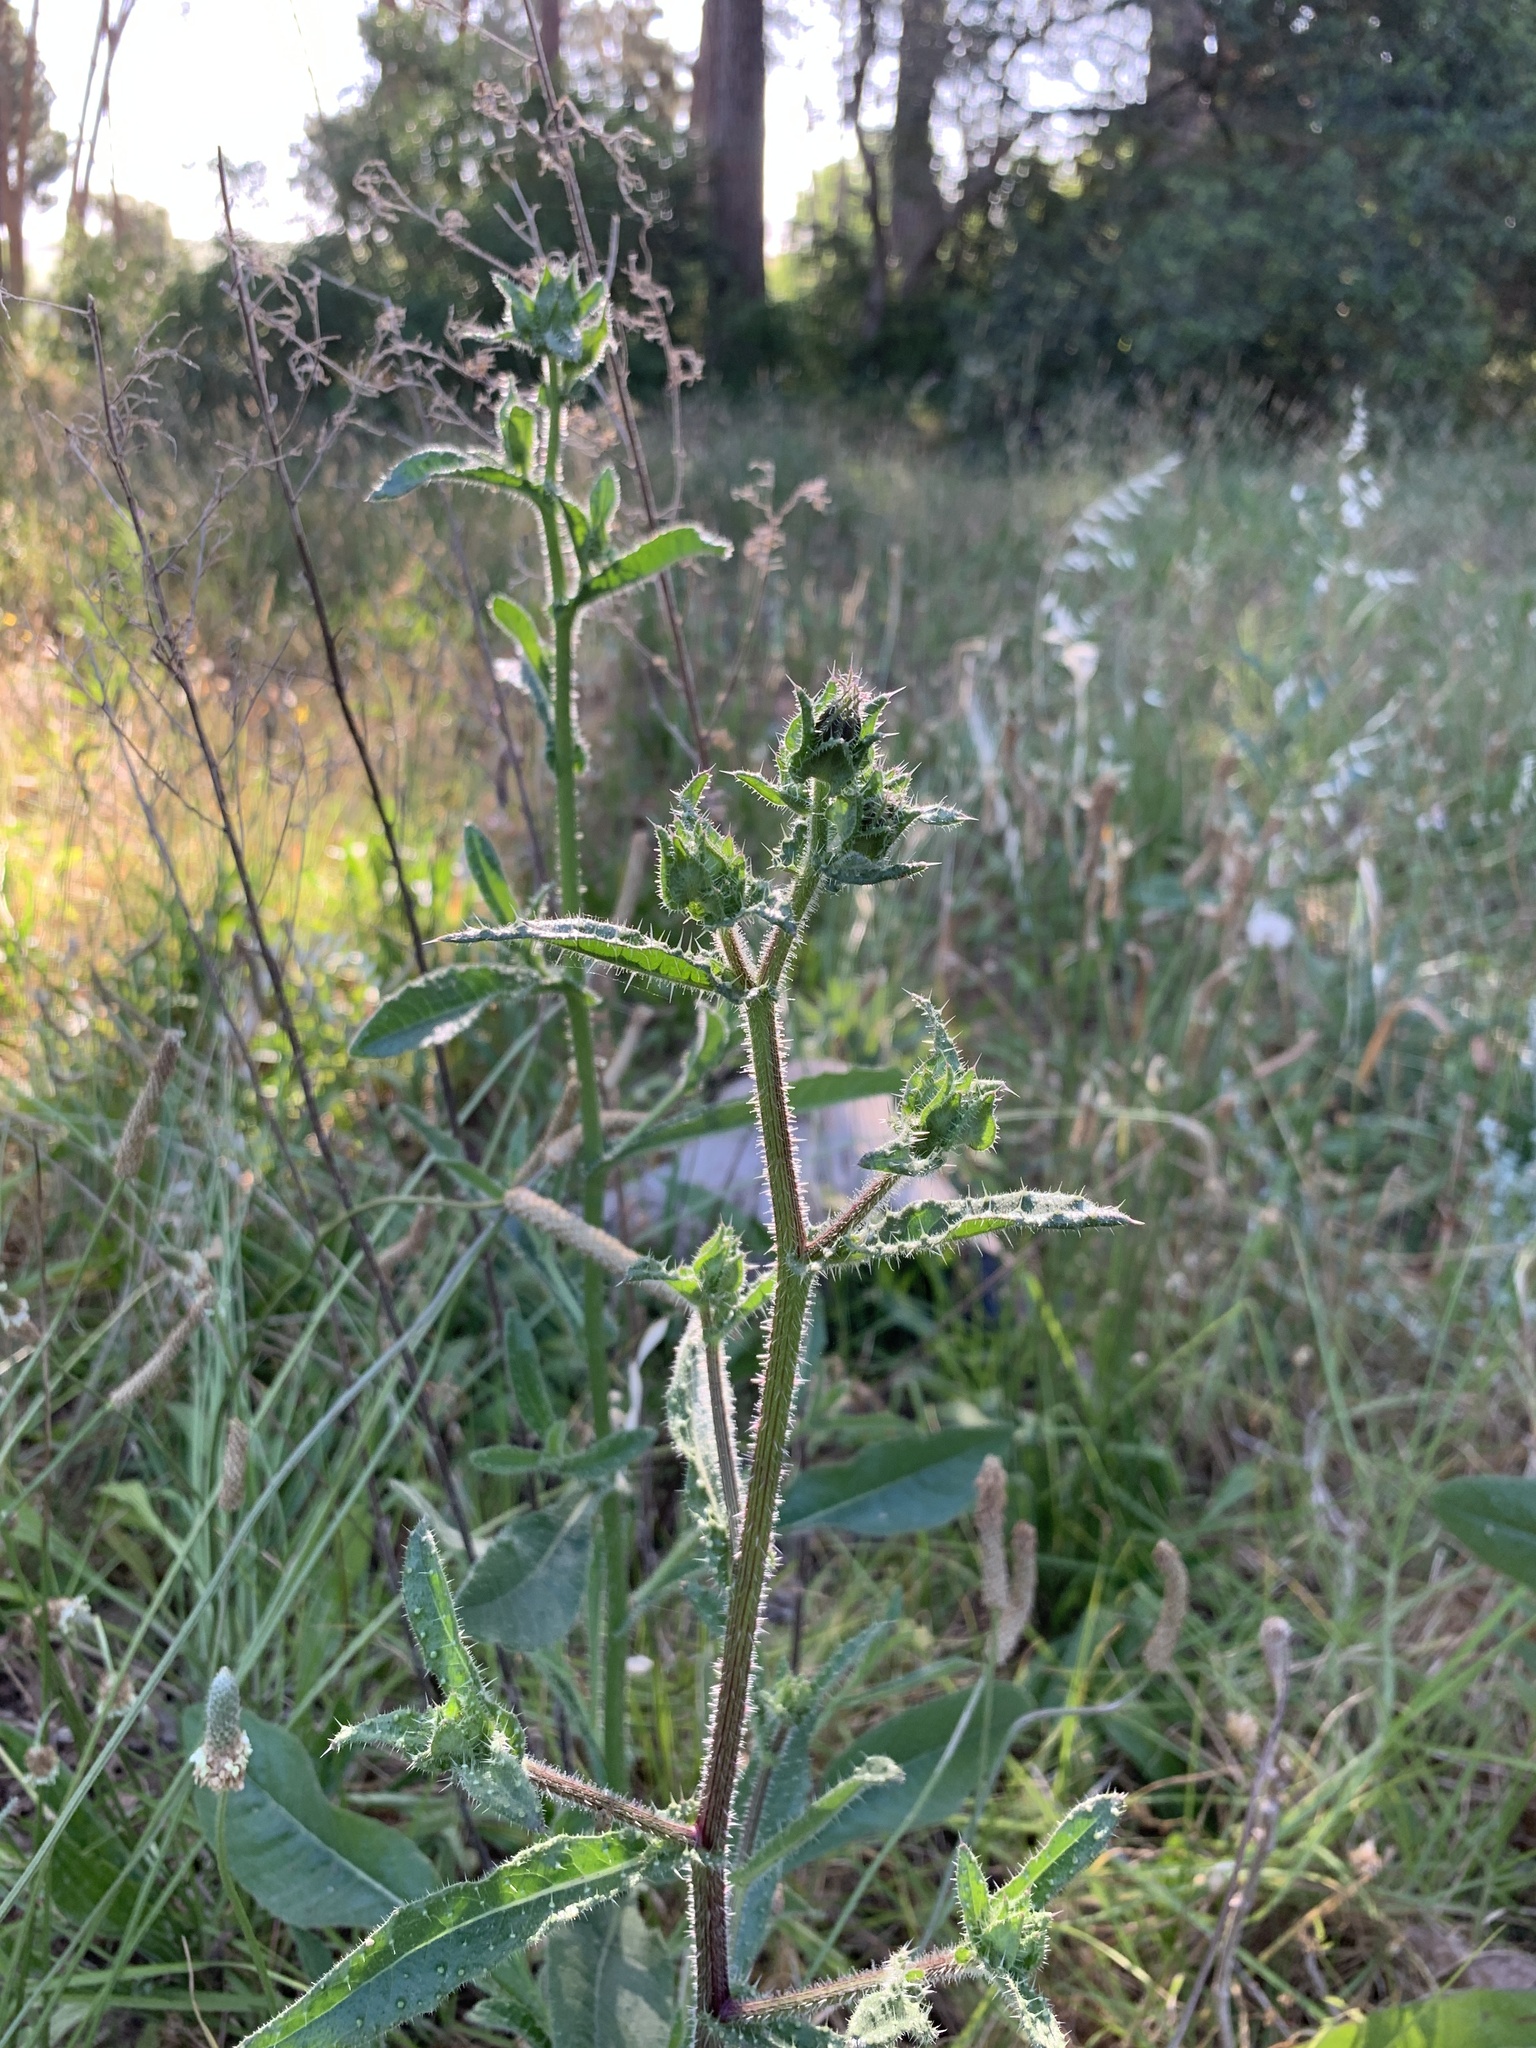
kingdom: Plantae
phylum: Tracheophyta
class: Magnoliopsida
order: Asterales
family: Asteraceae
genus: Helminthotheca
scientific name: Helminthotheca echioides
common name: Ox-tongue
